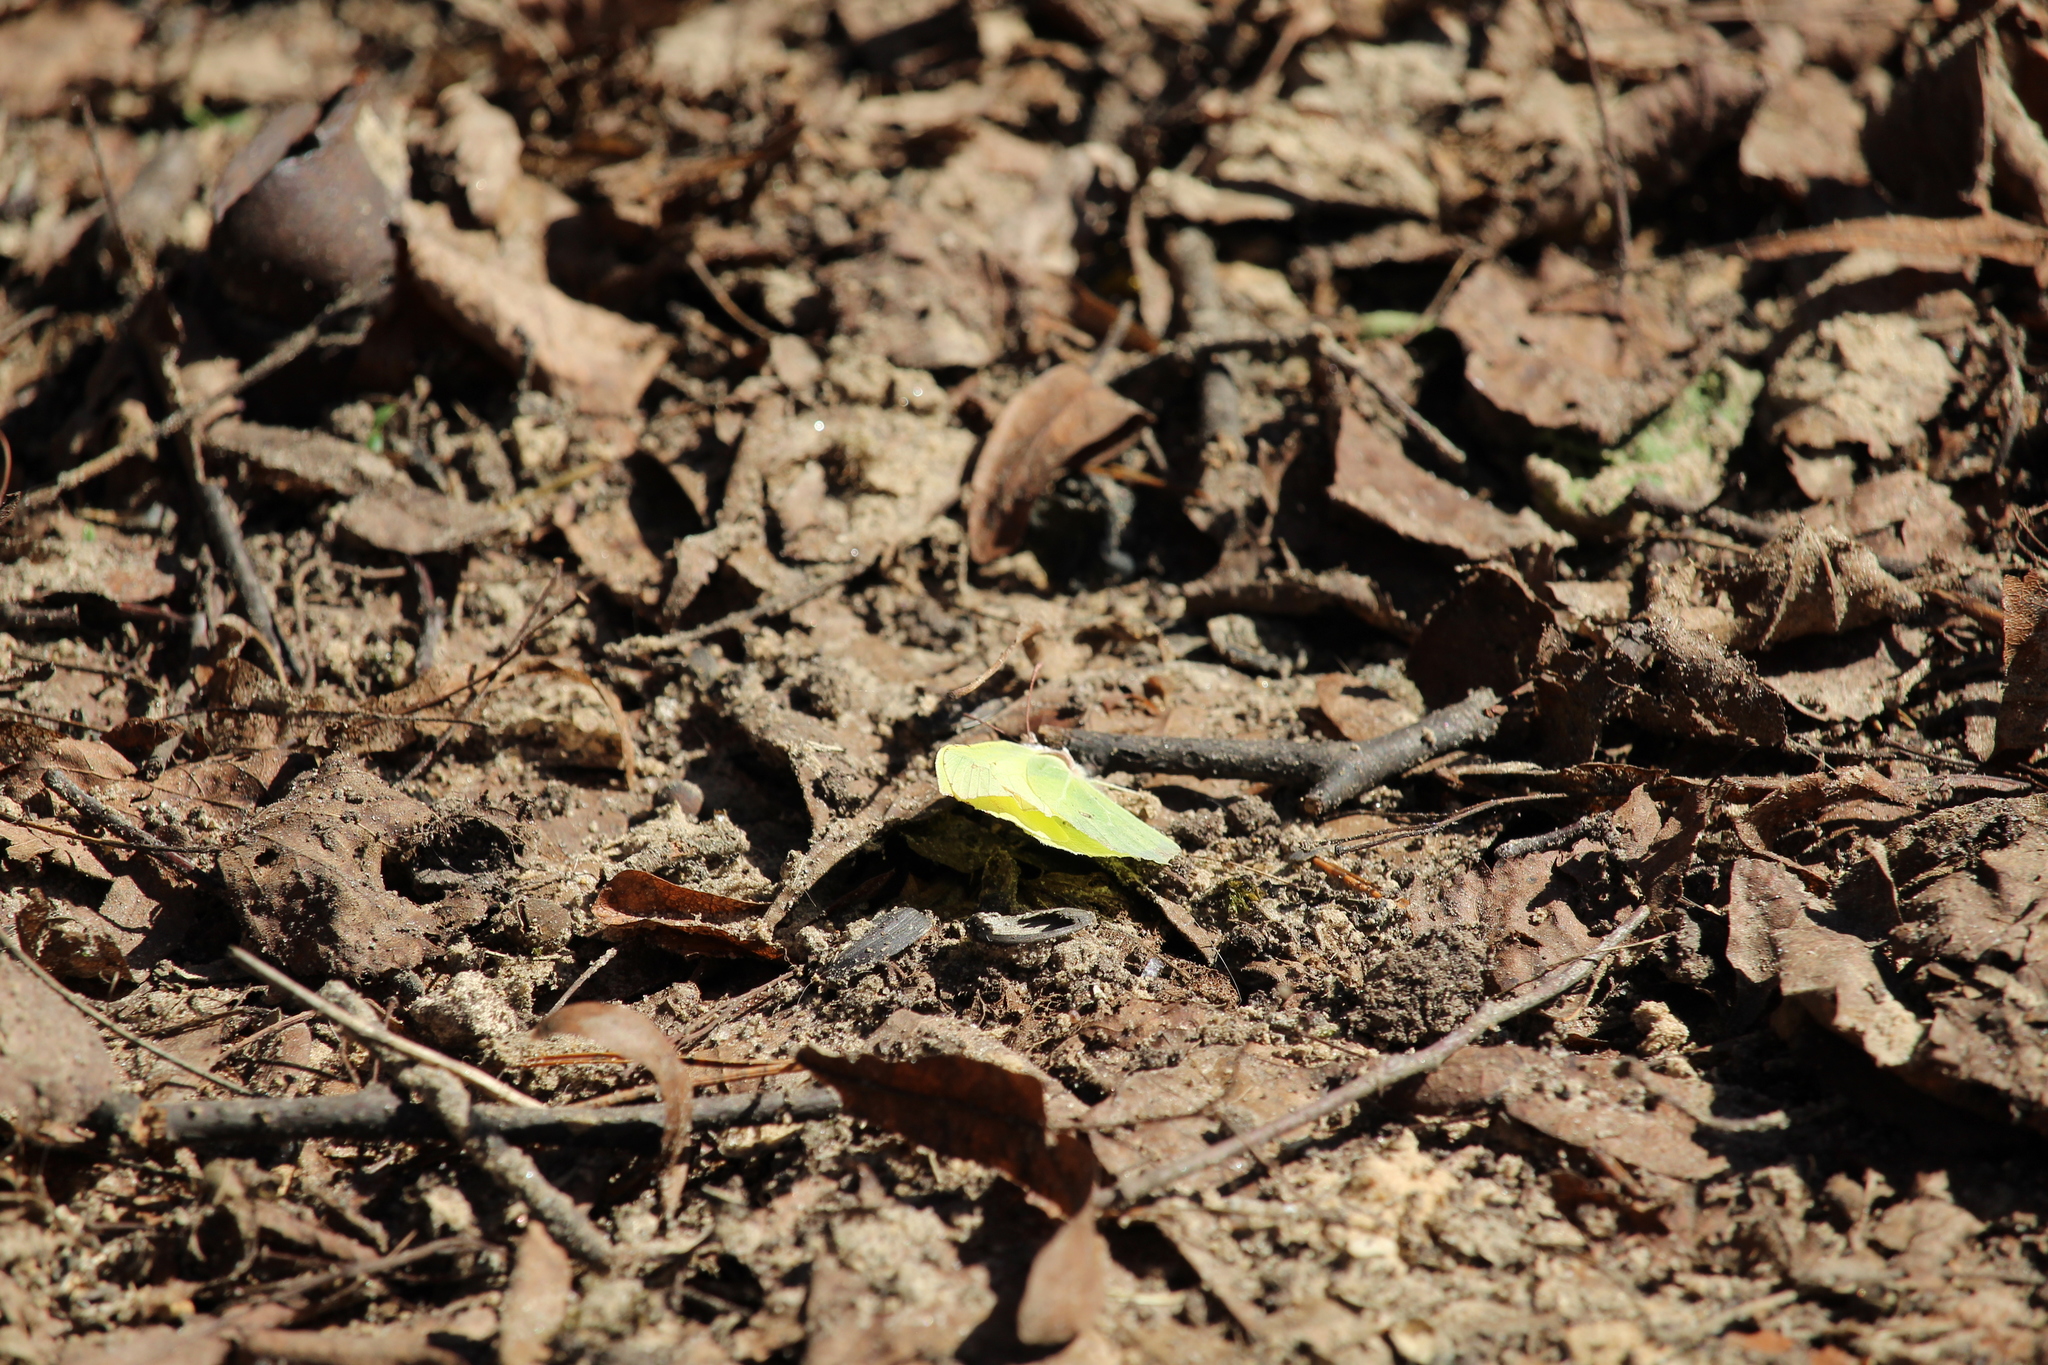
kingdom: Animalia
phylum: Arthropoda
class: Insecta
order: Lepidoptera
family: Pieridae
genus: Gonepteryx
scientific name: Gonepteryx rhamni
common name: Brimstone
